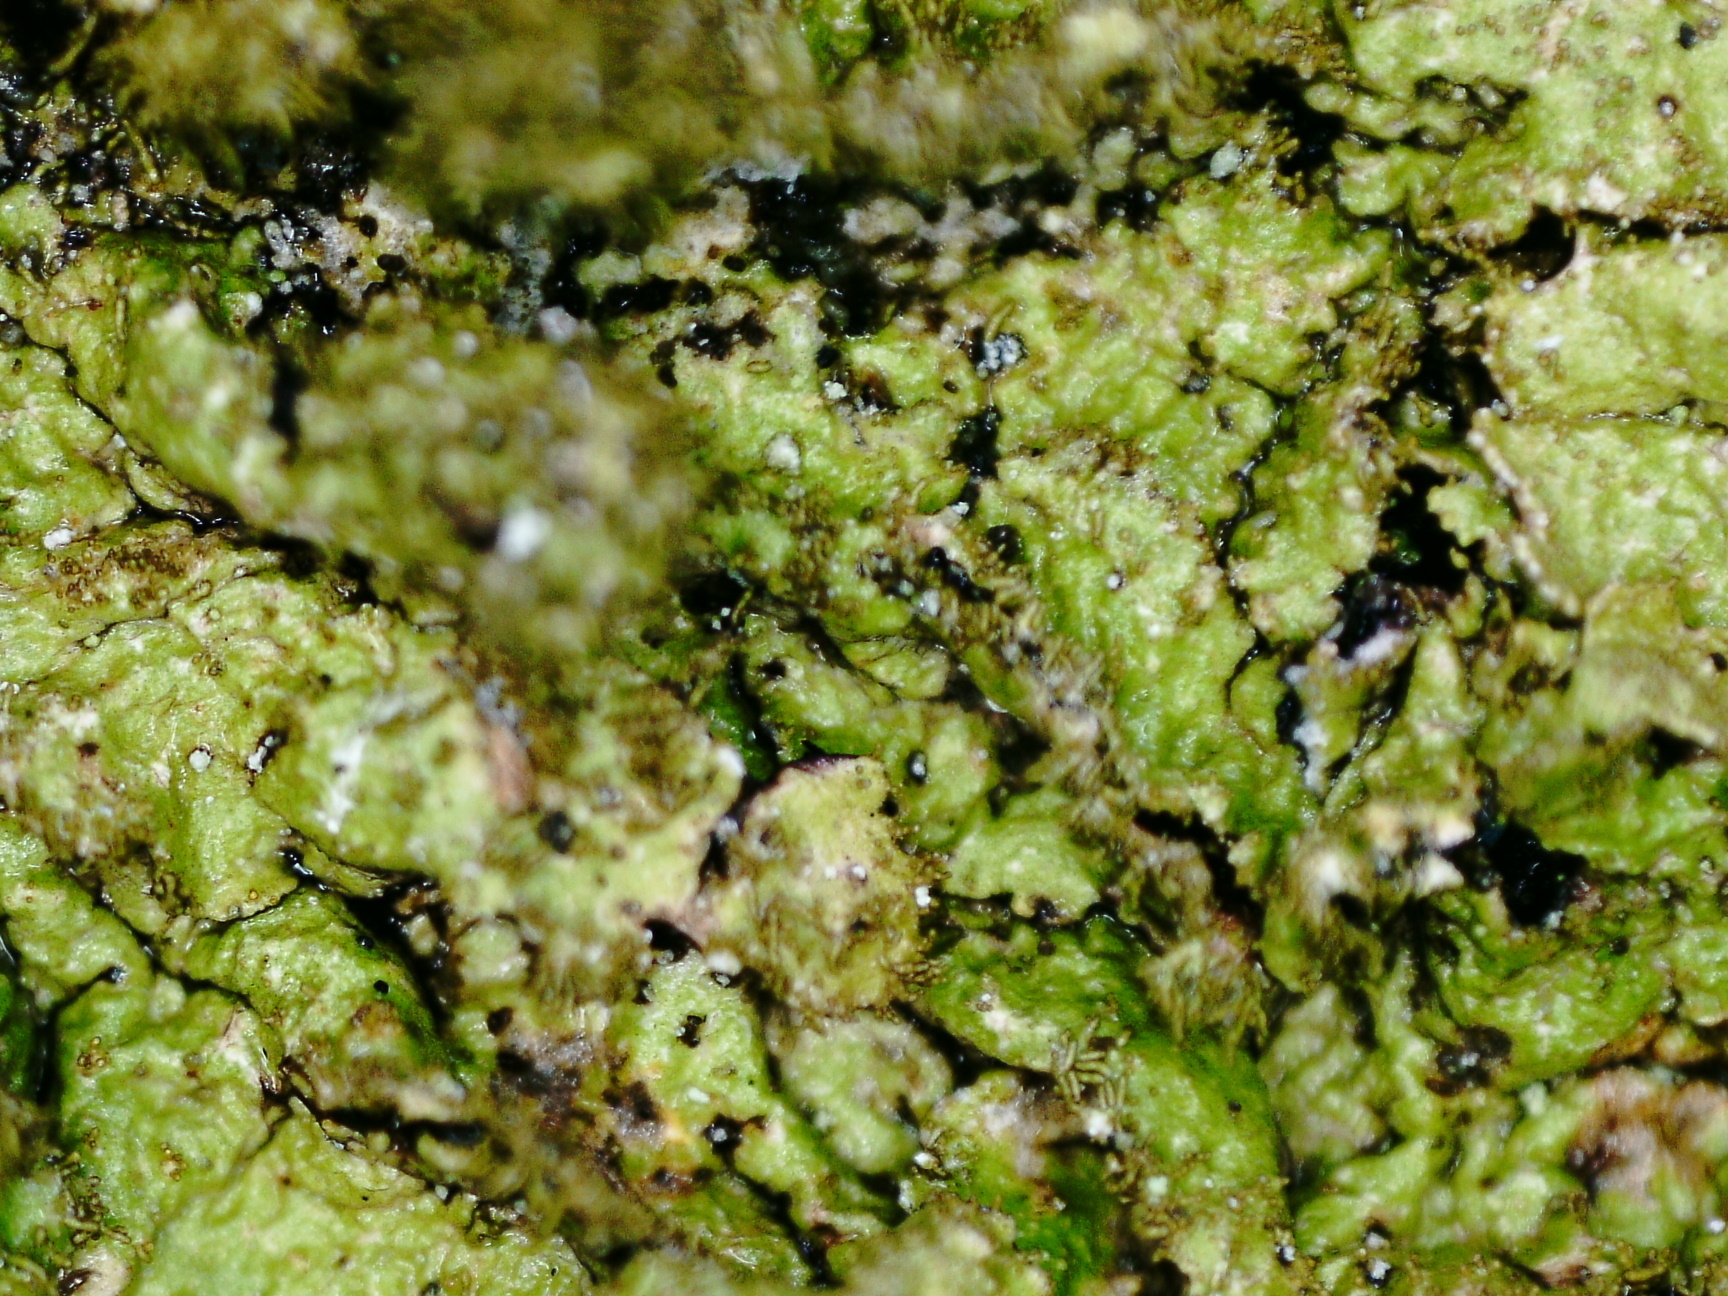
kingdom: Fungi
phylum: Ascomycota
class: Lecanoromycetes
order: Lecanorales
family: Parmeliaceae
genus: Melanelixia
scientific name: Melanelixia glabratula
